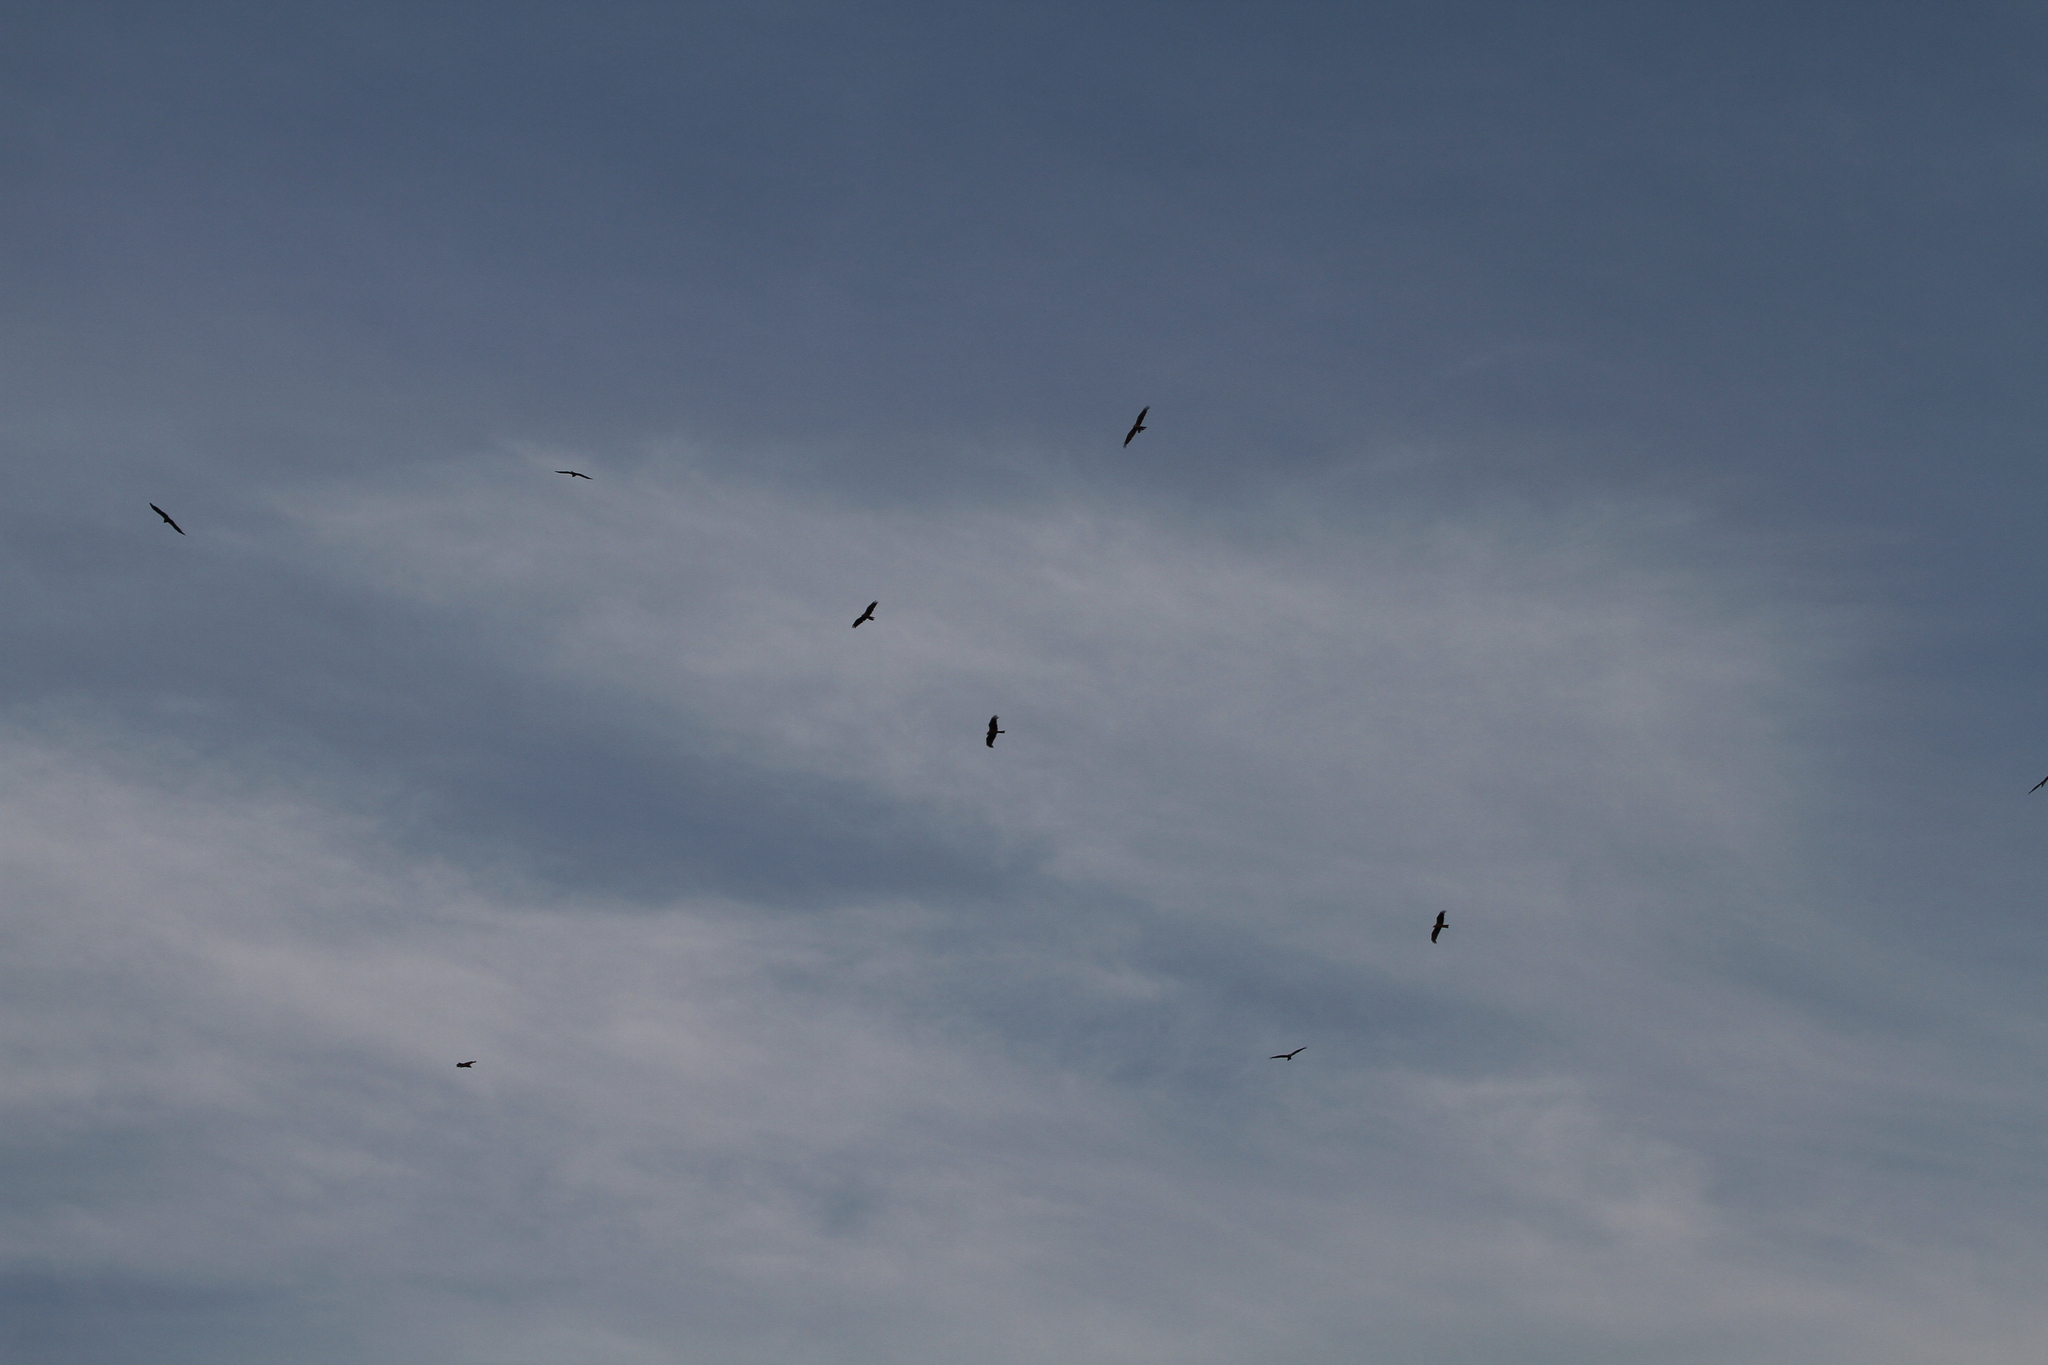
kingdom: Animalia
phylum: Chordata
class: Aves
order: Accipitriformes
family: Accipitridae
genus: Milvus
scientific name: Milvus migrans
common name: Black kite
